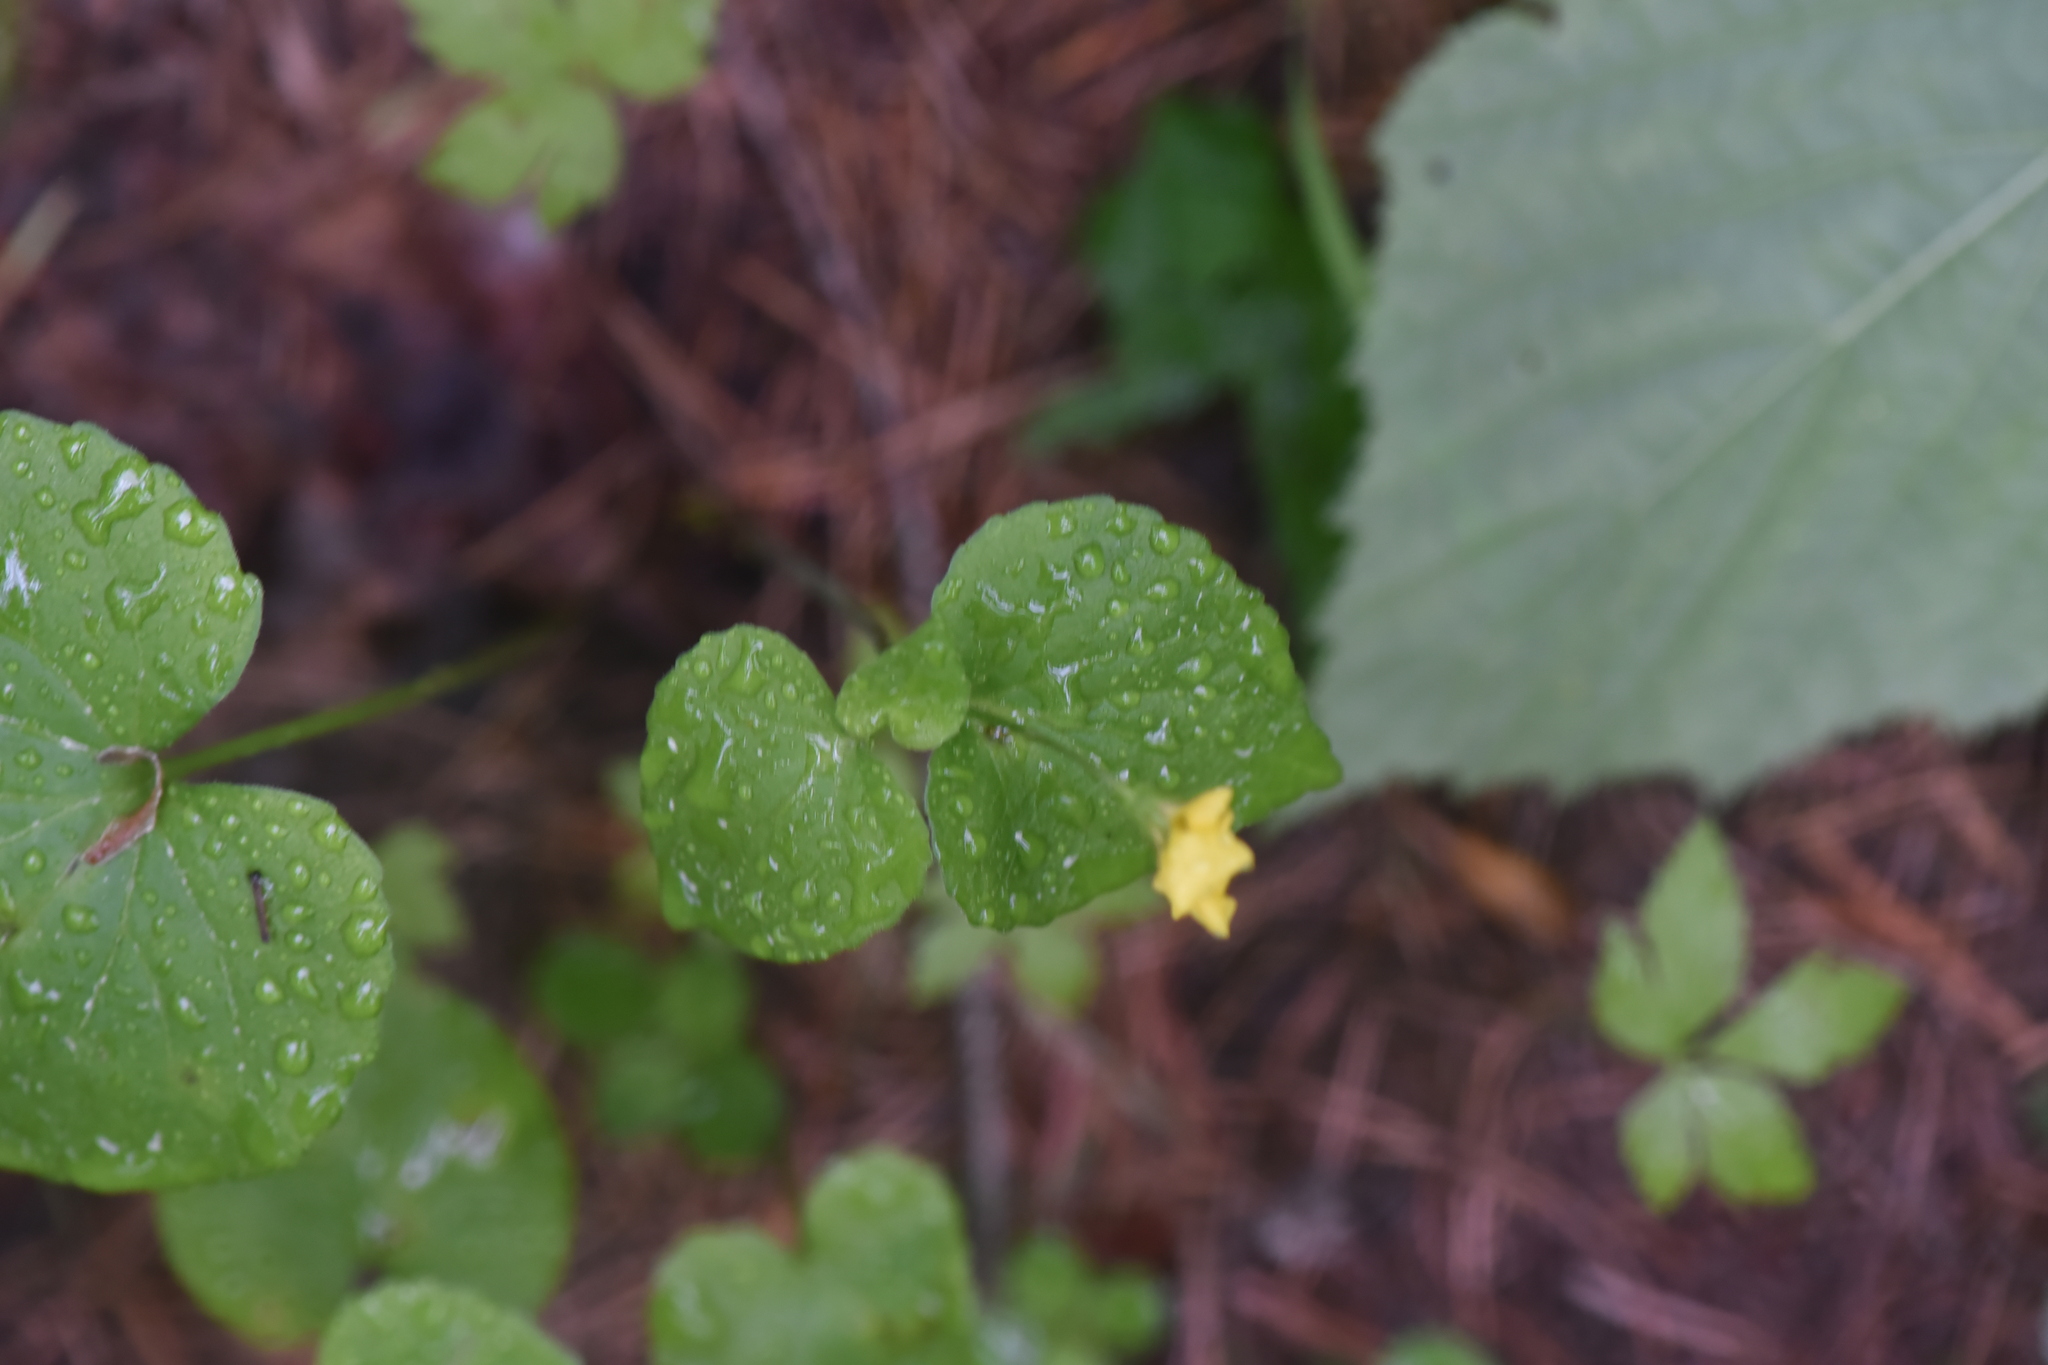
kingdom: Plantae
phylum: Tracheophyta
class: Magnoliopsida
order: Malpighiales
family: Violaceae
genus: Viola
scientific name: Viola glabella
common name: Stream violet
